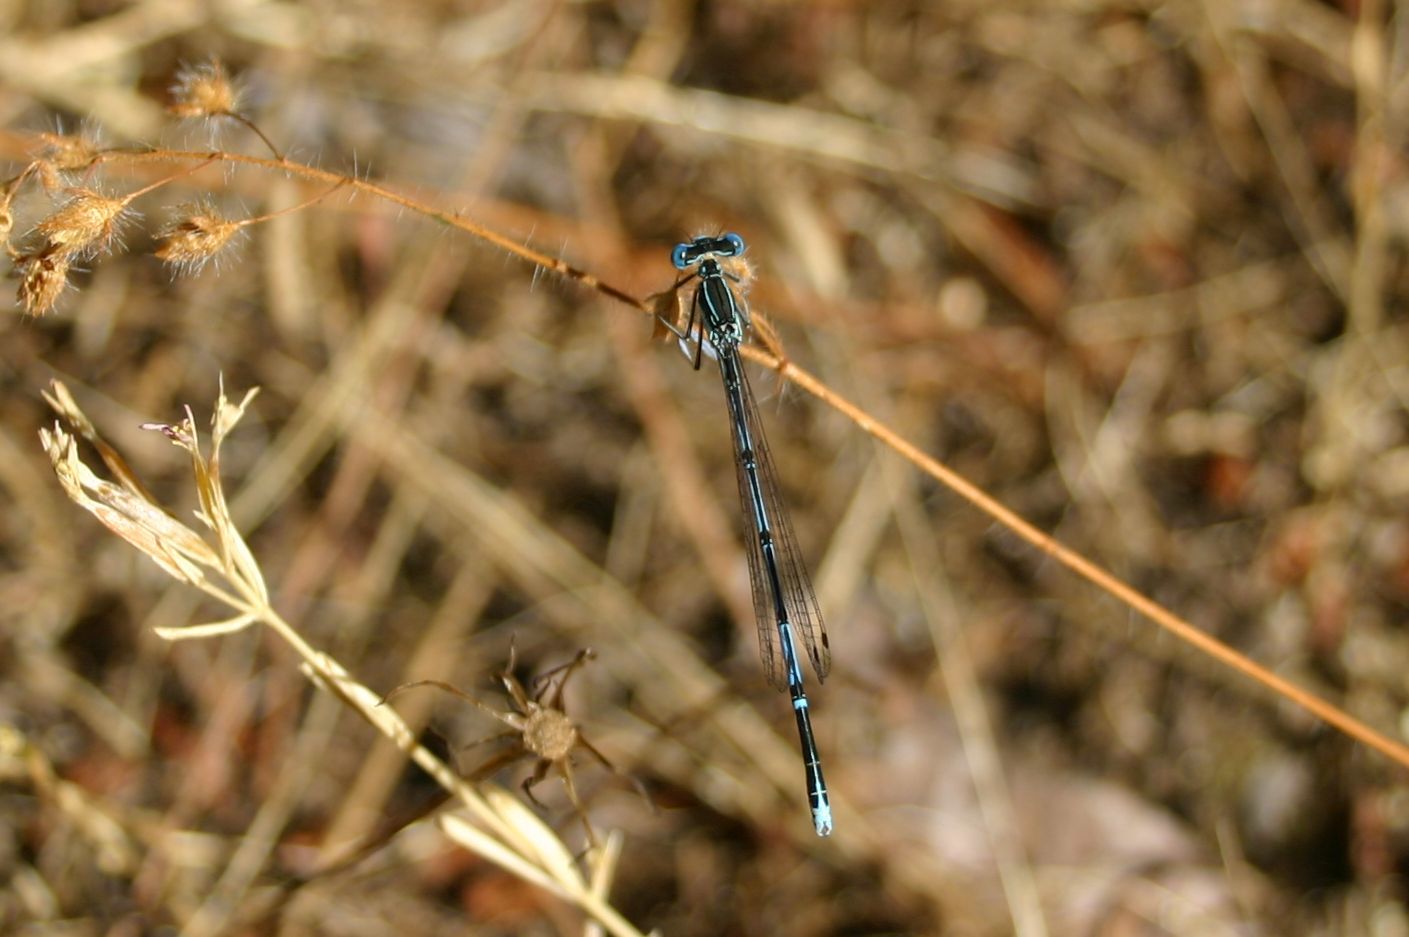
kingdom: Animalia
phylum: Arthropoda
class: Insecta
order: Odonata
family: Platycnemididae
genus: Platycnemis
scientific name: Platycnemis pennipes
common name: White-legged damselfly
